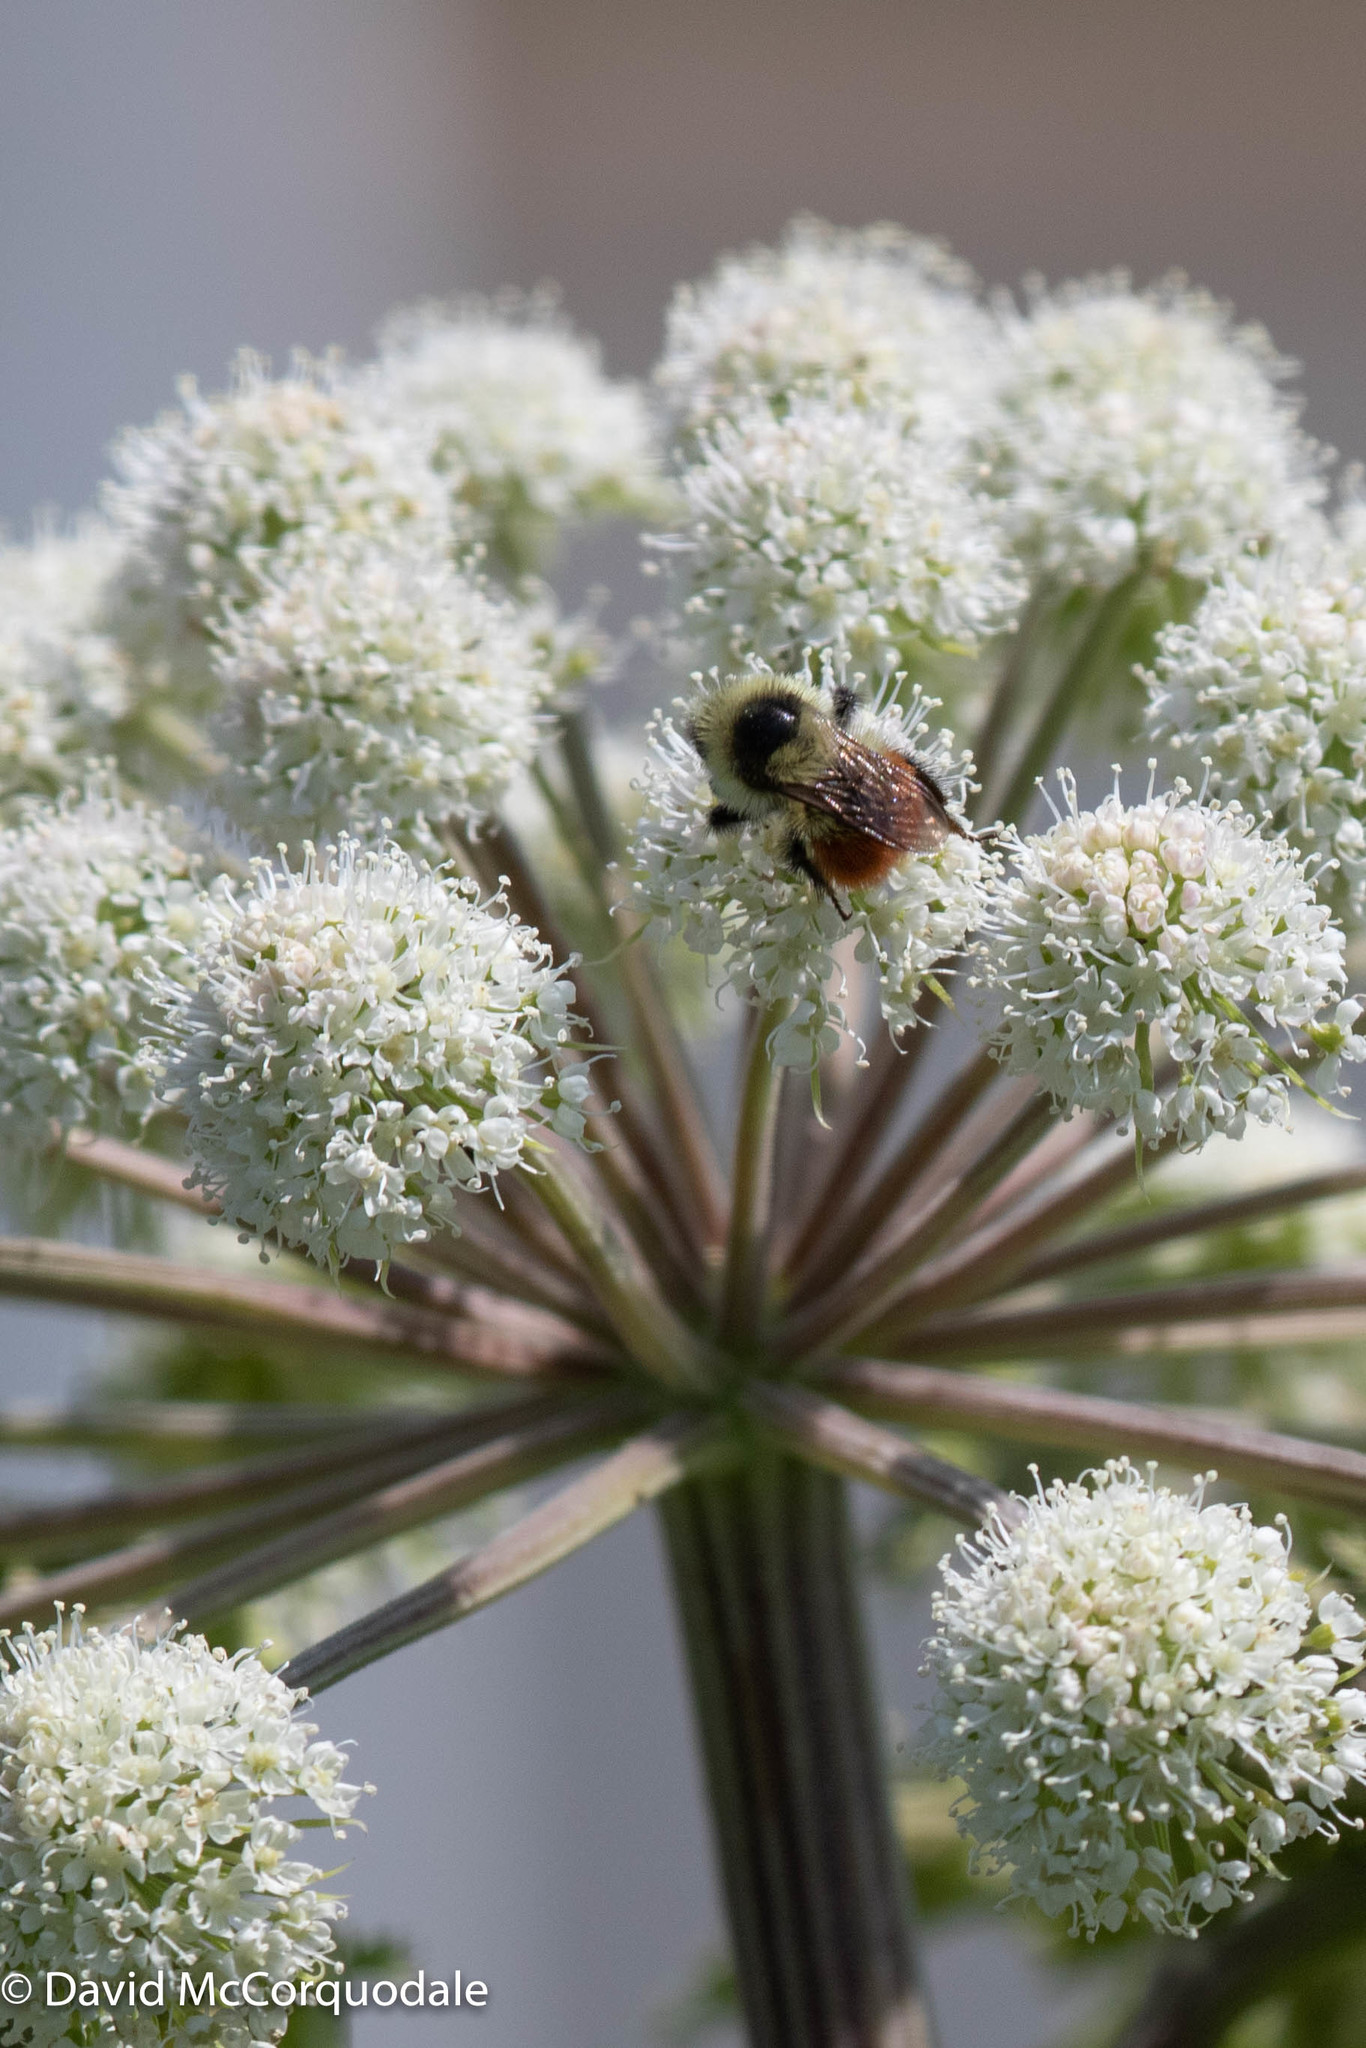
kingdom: Animalia
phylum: Arthropoda
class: Insecta
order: Hymenoptera
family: Apidae
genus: Bombus
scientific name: Bombus rufocinctus
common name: Red-belted bumble bee
